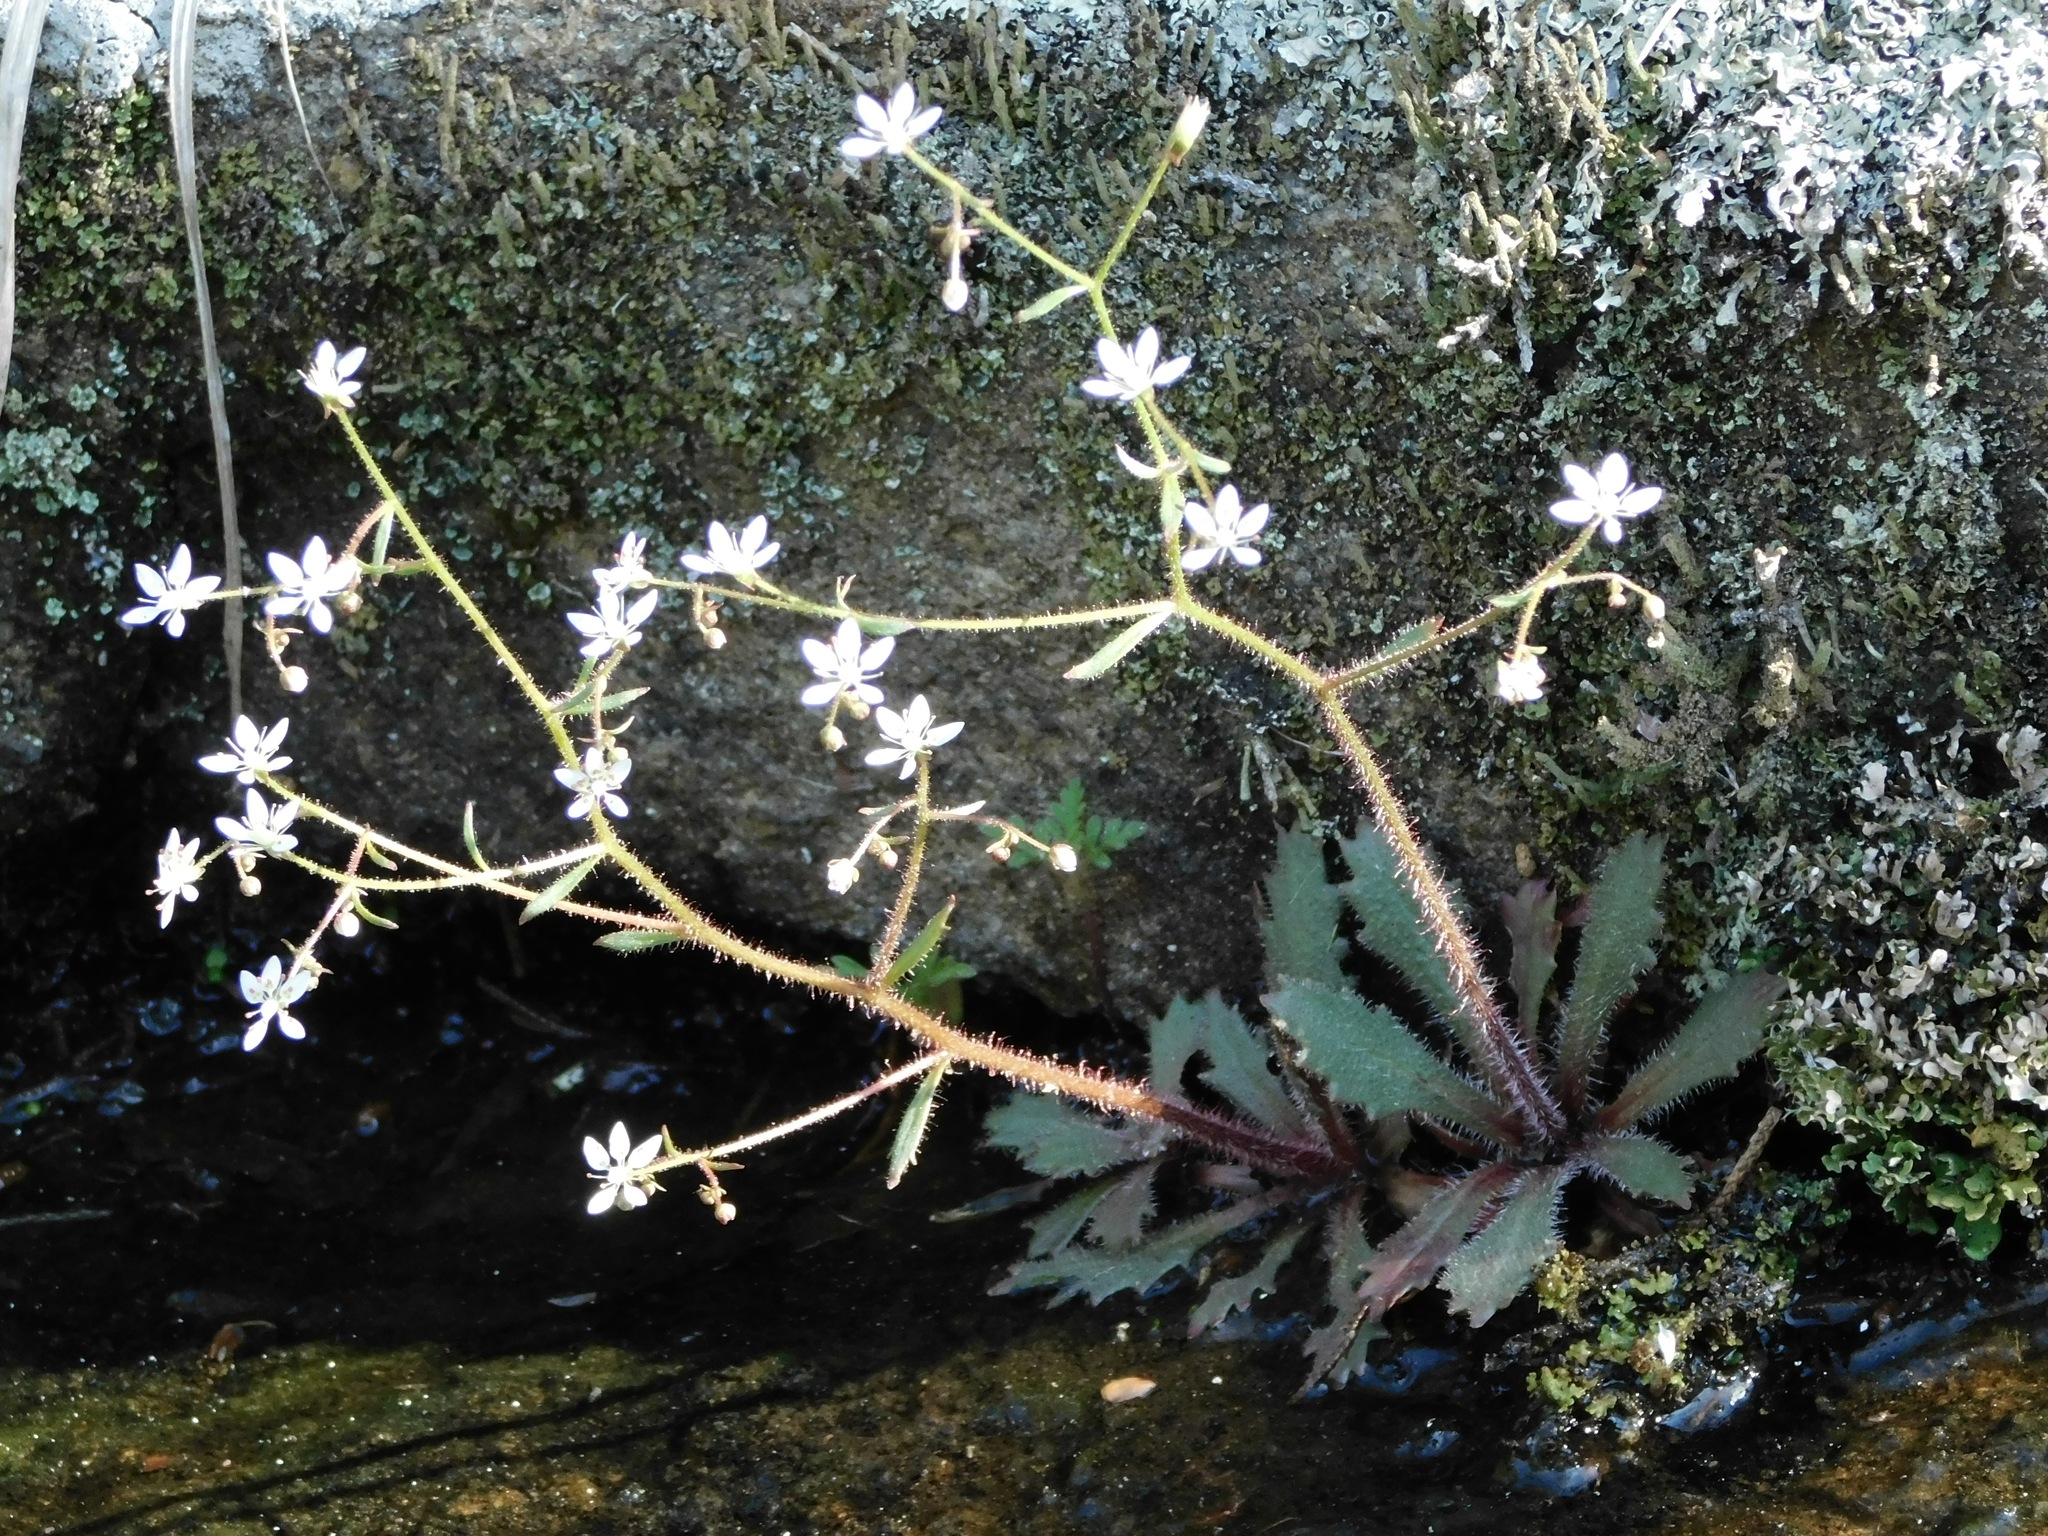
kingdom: Plantae
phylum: Tracheophyta
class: Magnoliopsida
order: Saxifragales
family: Saxifragaceae
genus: Micranthes
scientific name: Micranthes petiolaris
